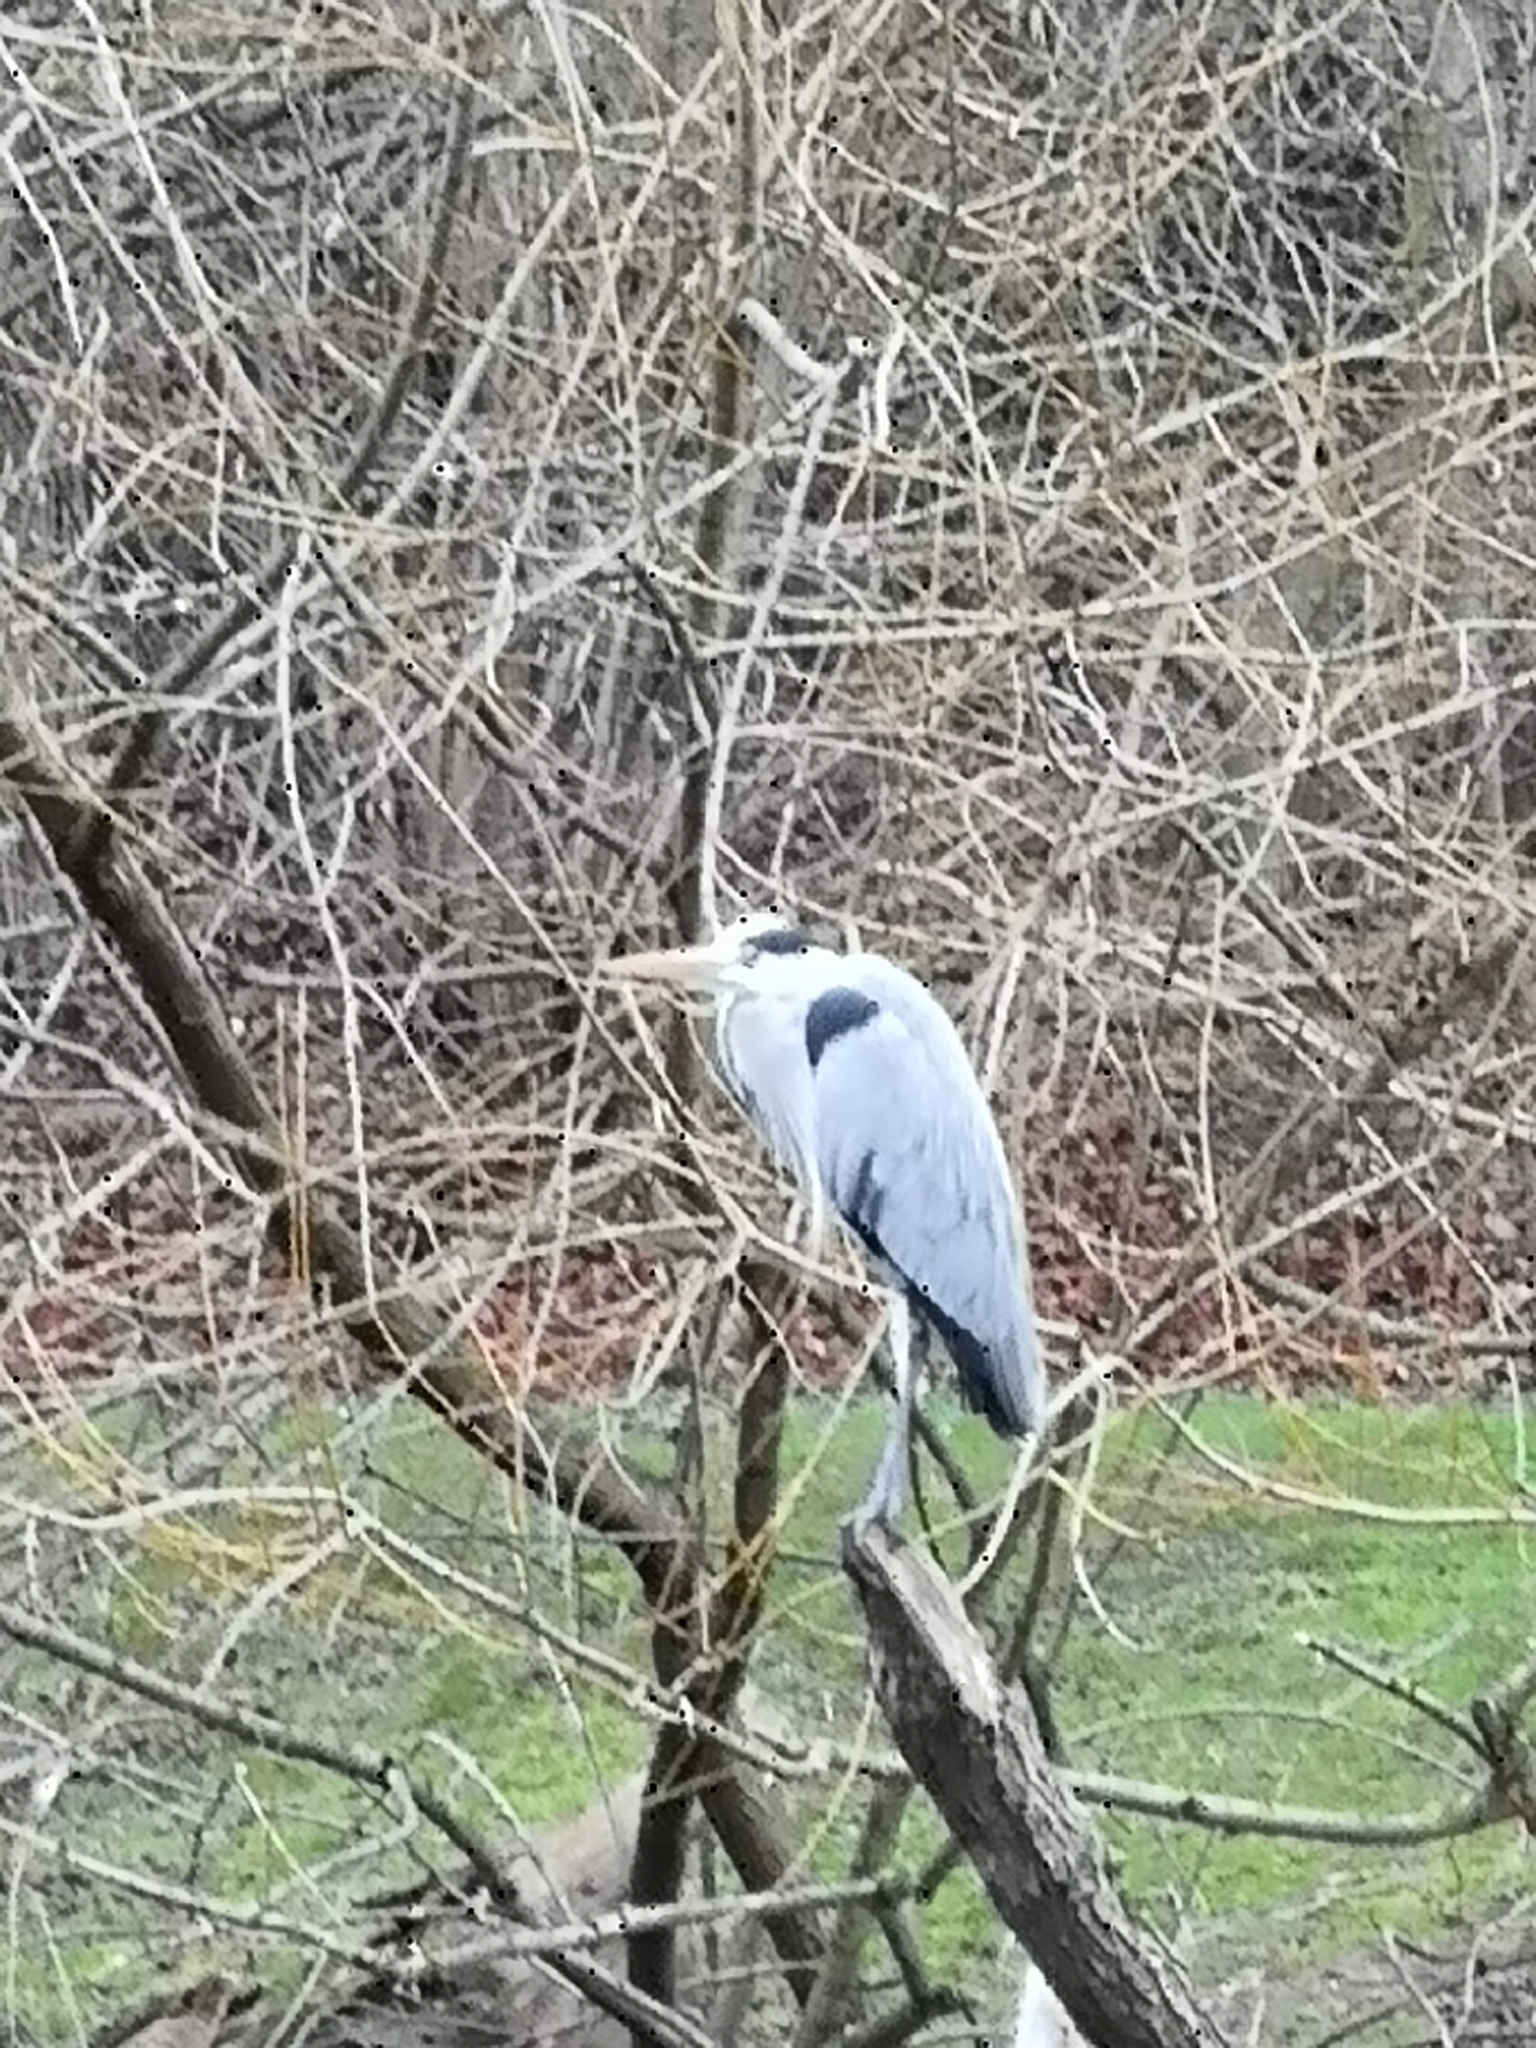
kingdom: Animalia
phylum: Chordata
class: Aves
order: Pelecaniformes
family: Ardeidae
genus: Ardea
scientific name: Ardea cinerea
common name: Grey heron
